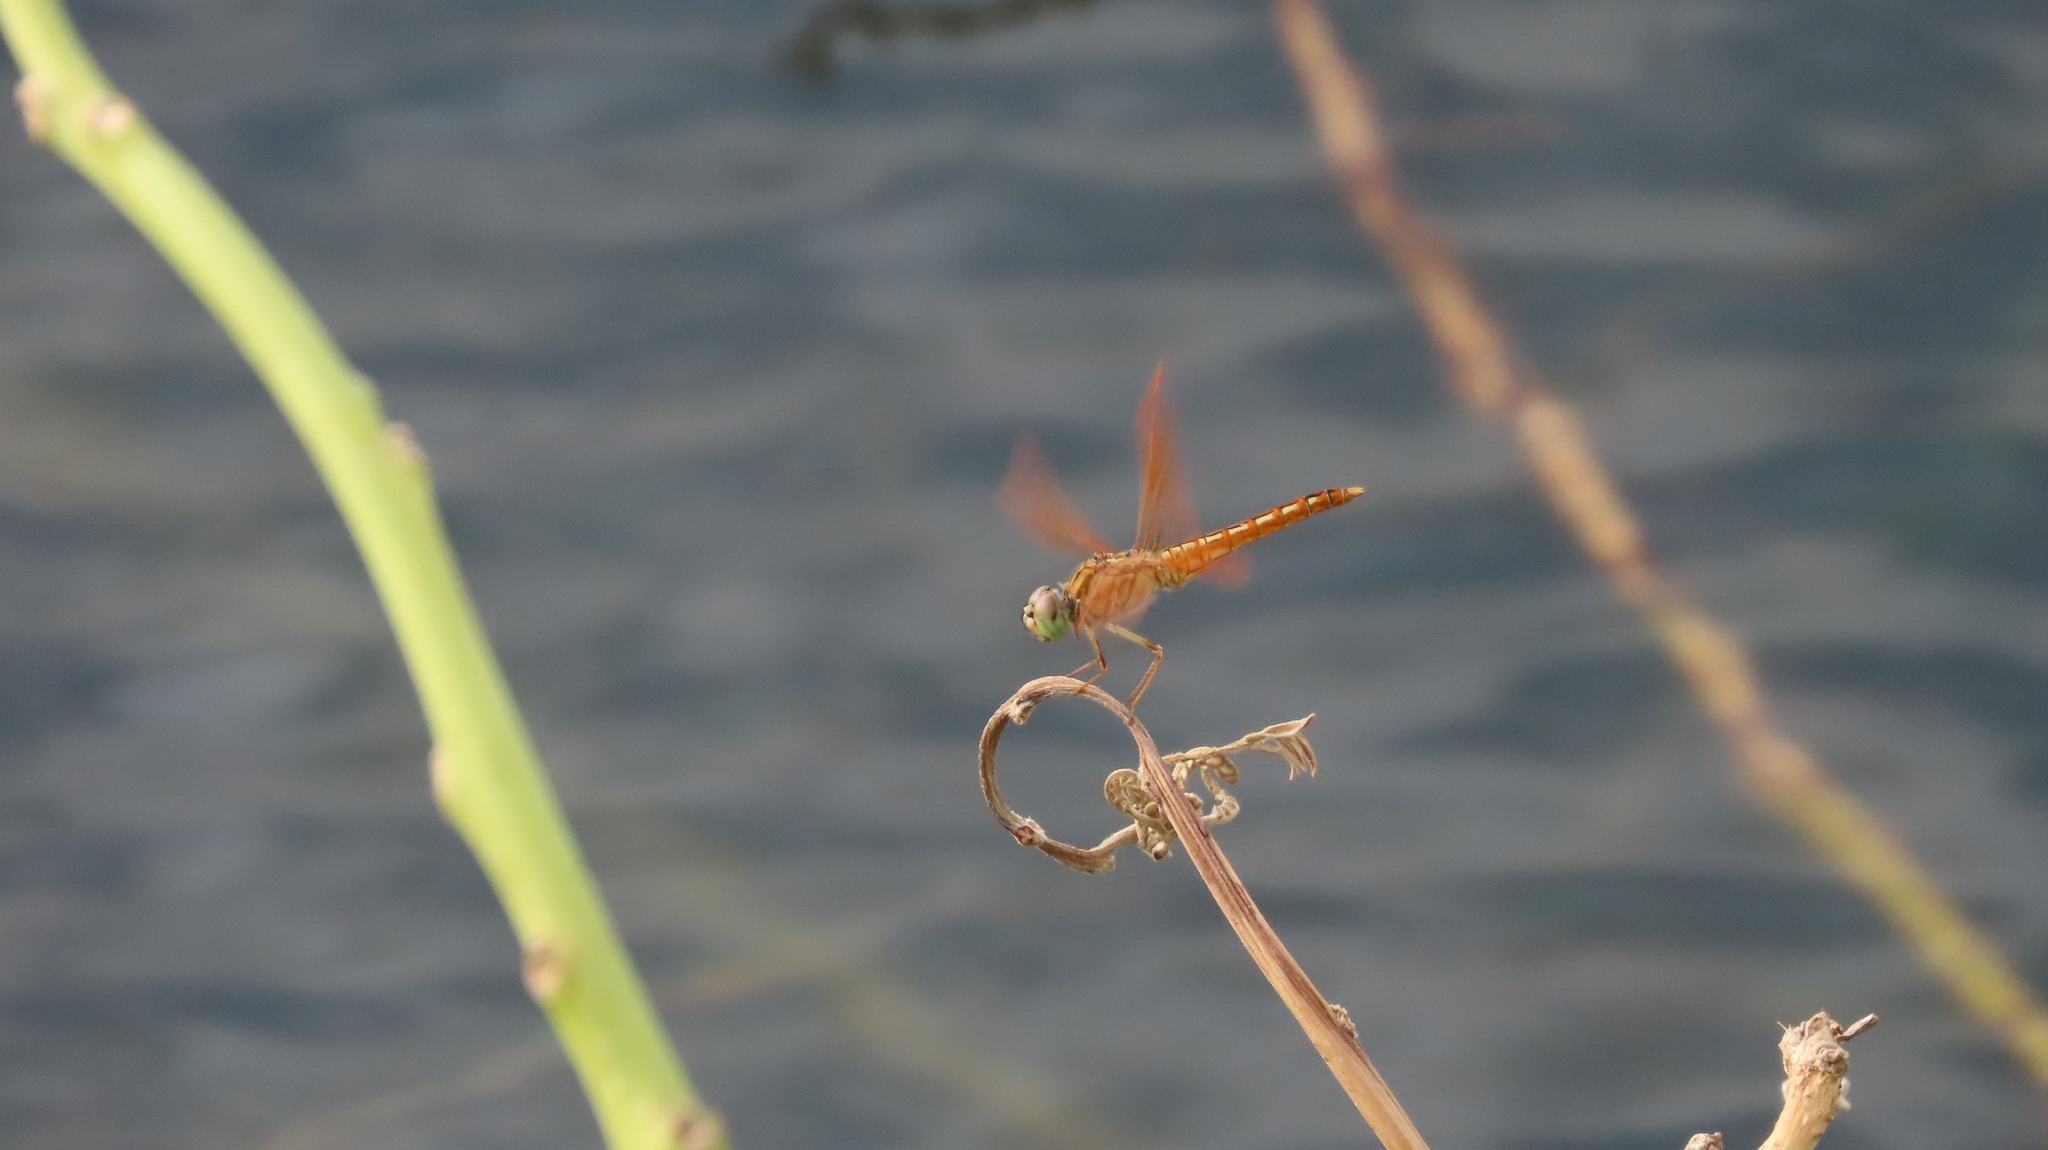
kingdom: Animalia
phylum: Arthropoda
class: Insecta
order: Odonata
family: Libellulidae
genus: Brachythemis
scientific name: Brachythemis contaminata
